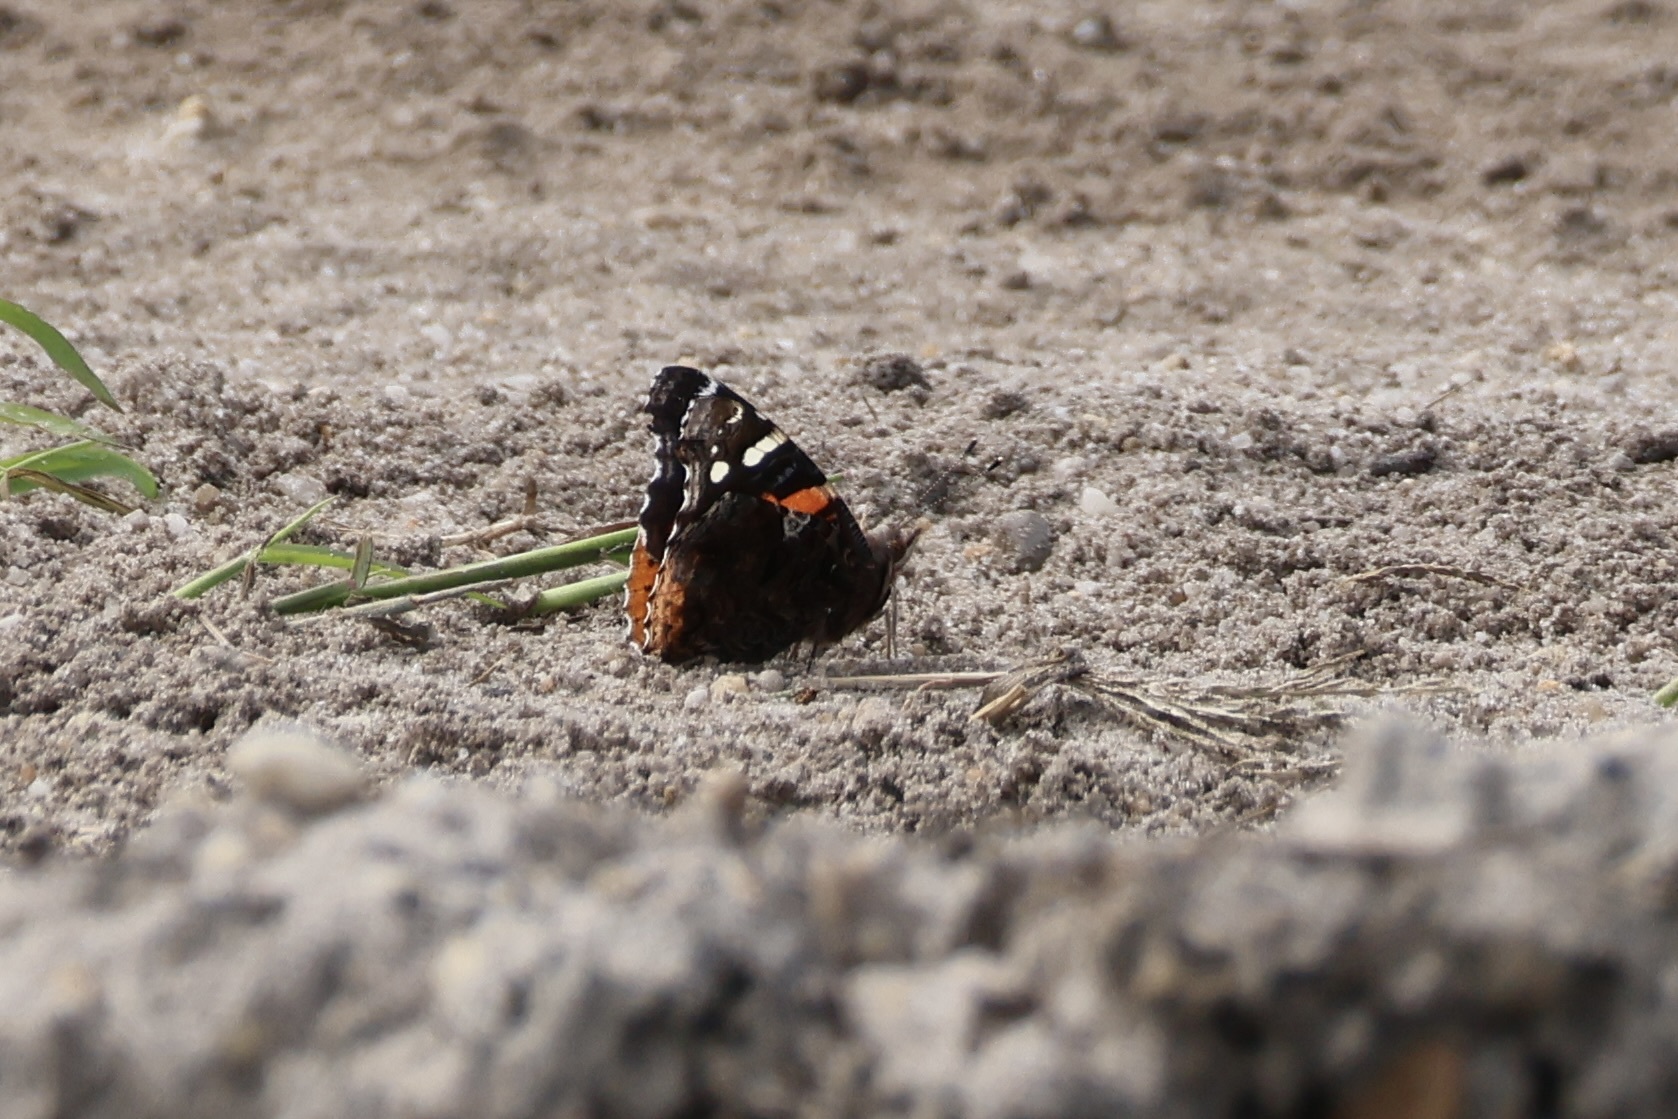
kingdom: Animalia
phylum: Arthropoda
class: Insecta
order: Lepidoptera
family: Nymphalidae
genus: Vanessa
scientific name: Vanessa atalanta
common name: Red admiral
